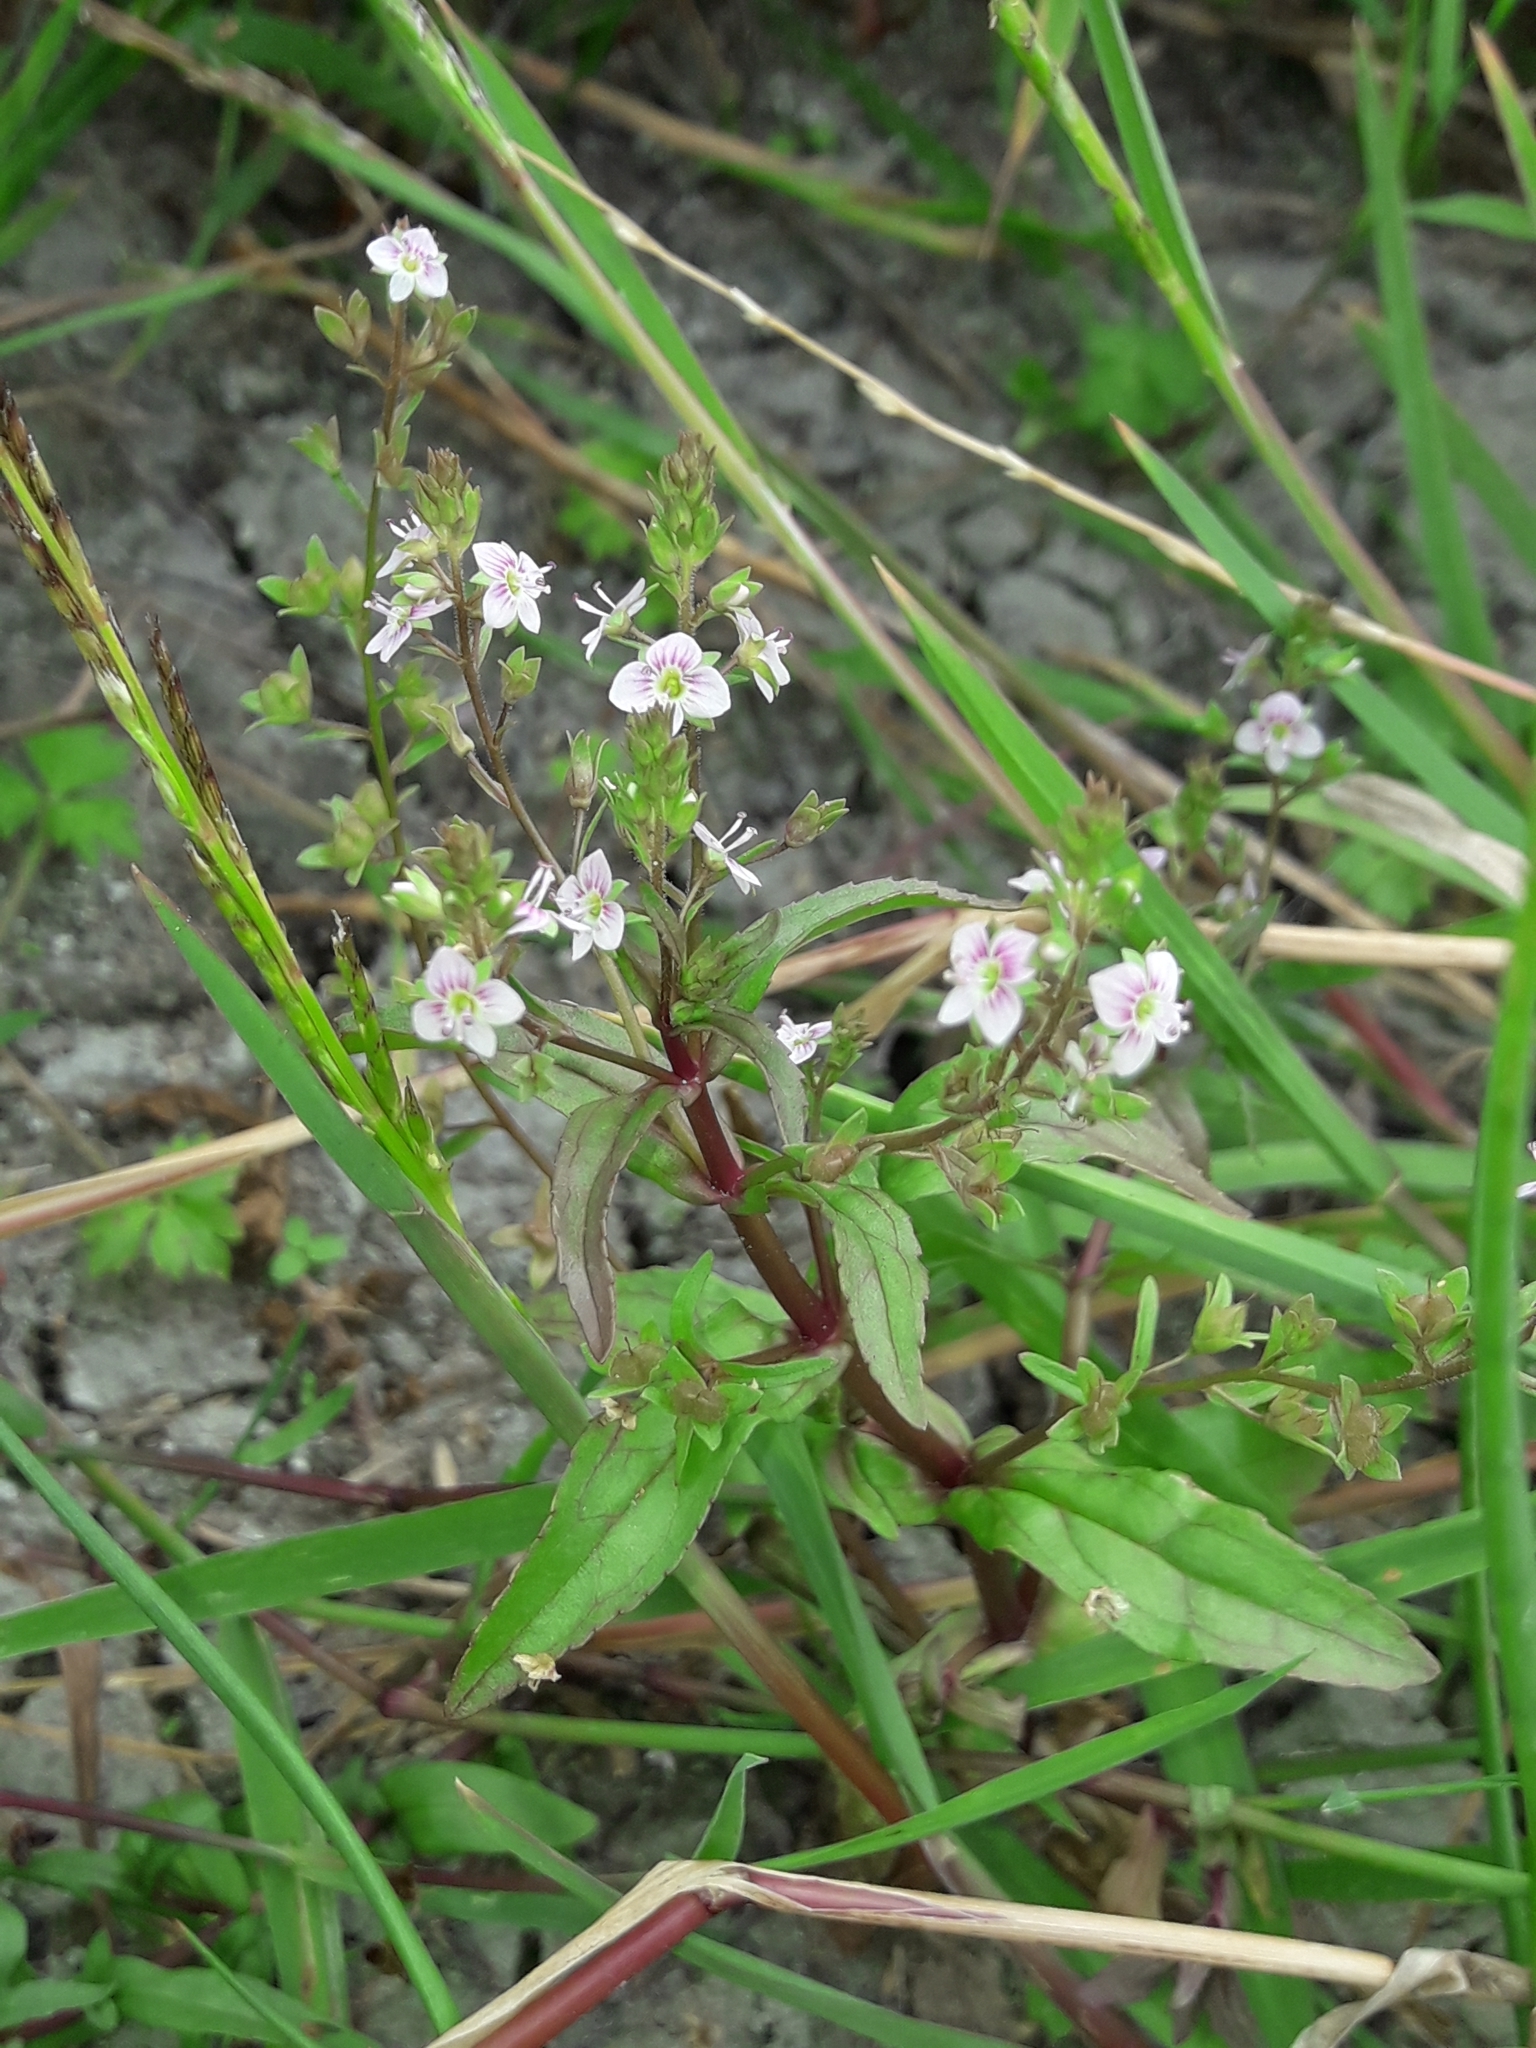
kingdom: Plantae
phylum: Tracheophyta
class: Magnoliopsida
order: Lamiales
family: Plantaginaceae
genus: Veronica
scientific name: Veronica anagallis-aquatica
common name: Water speedwell
